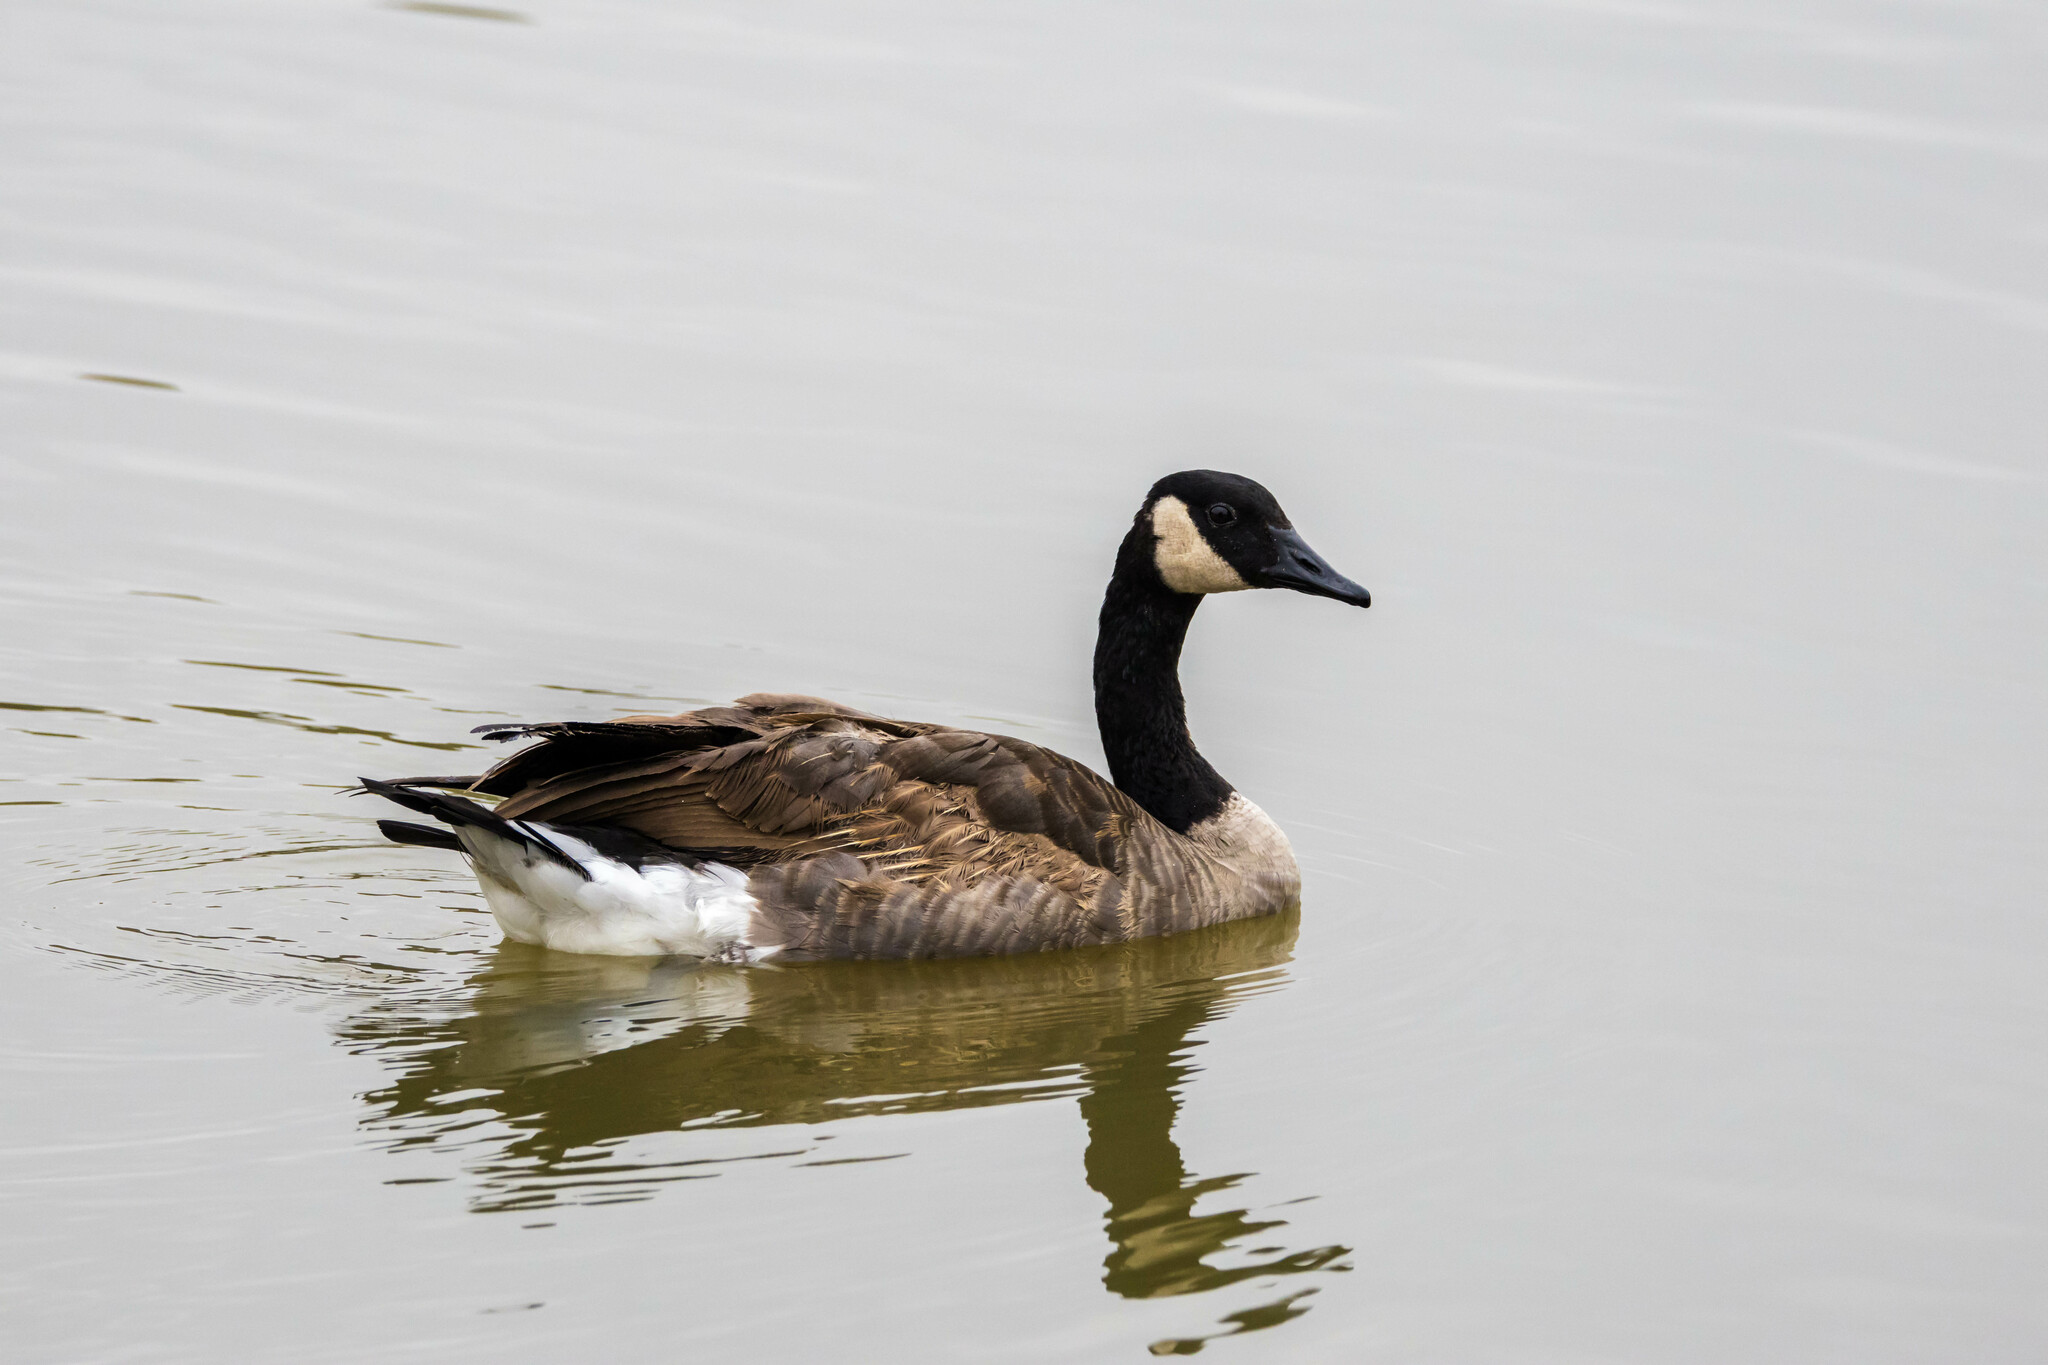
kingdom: Animalia
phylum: Chordata
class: Aves
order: Anseriformes
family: Anatidae
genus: Branta
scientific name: Branta canadensis
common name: Canada goose
